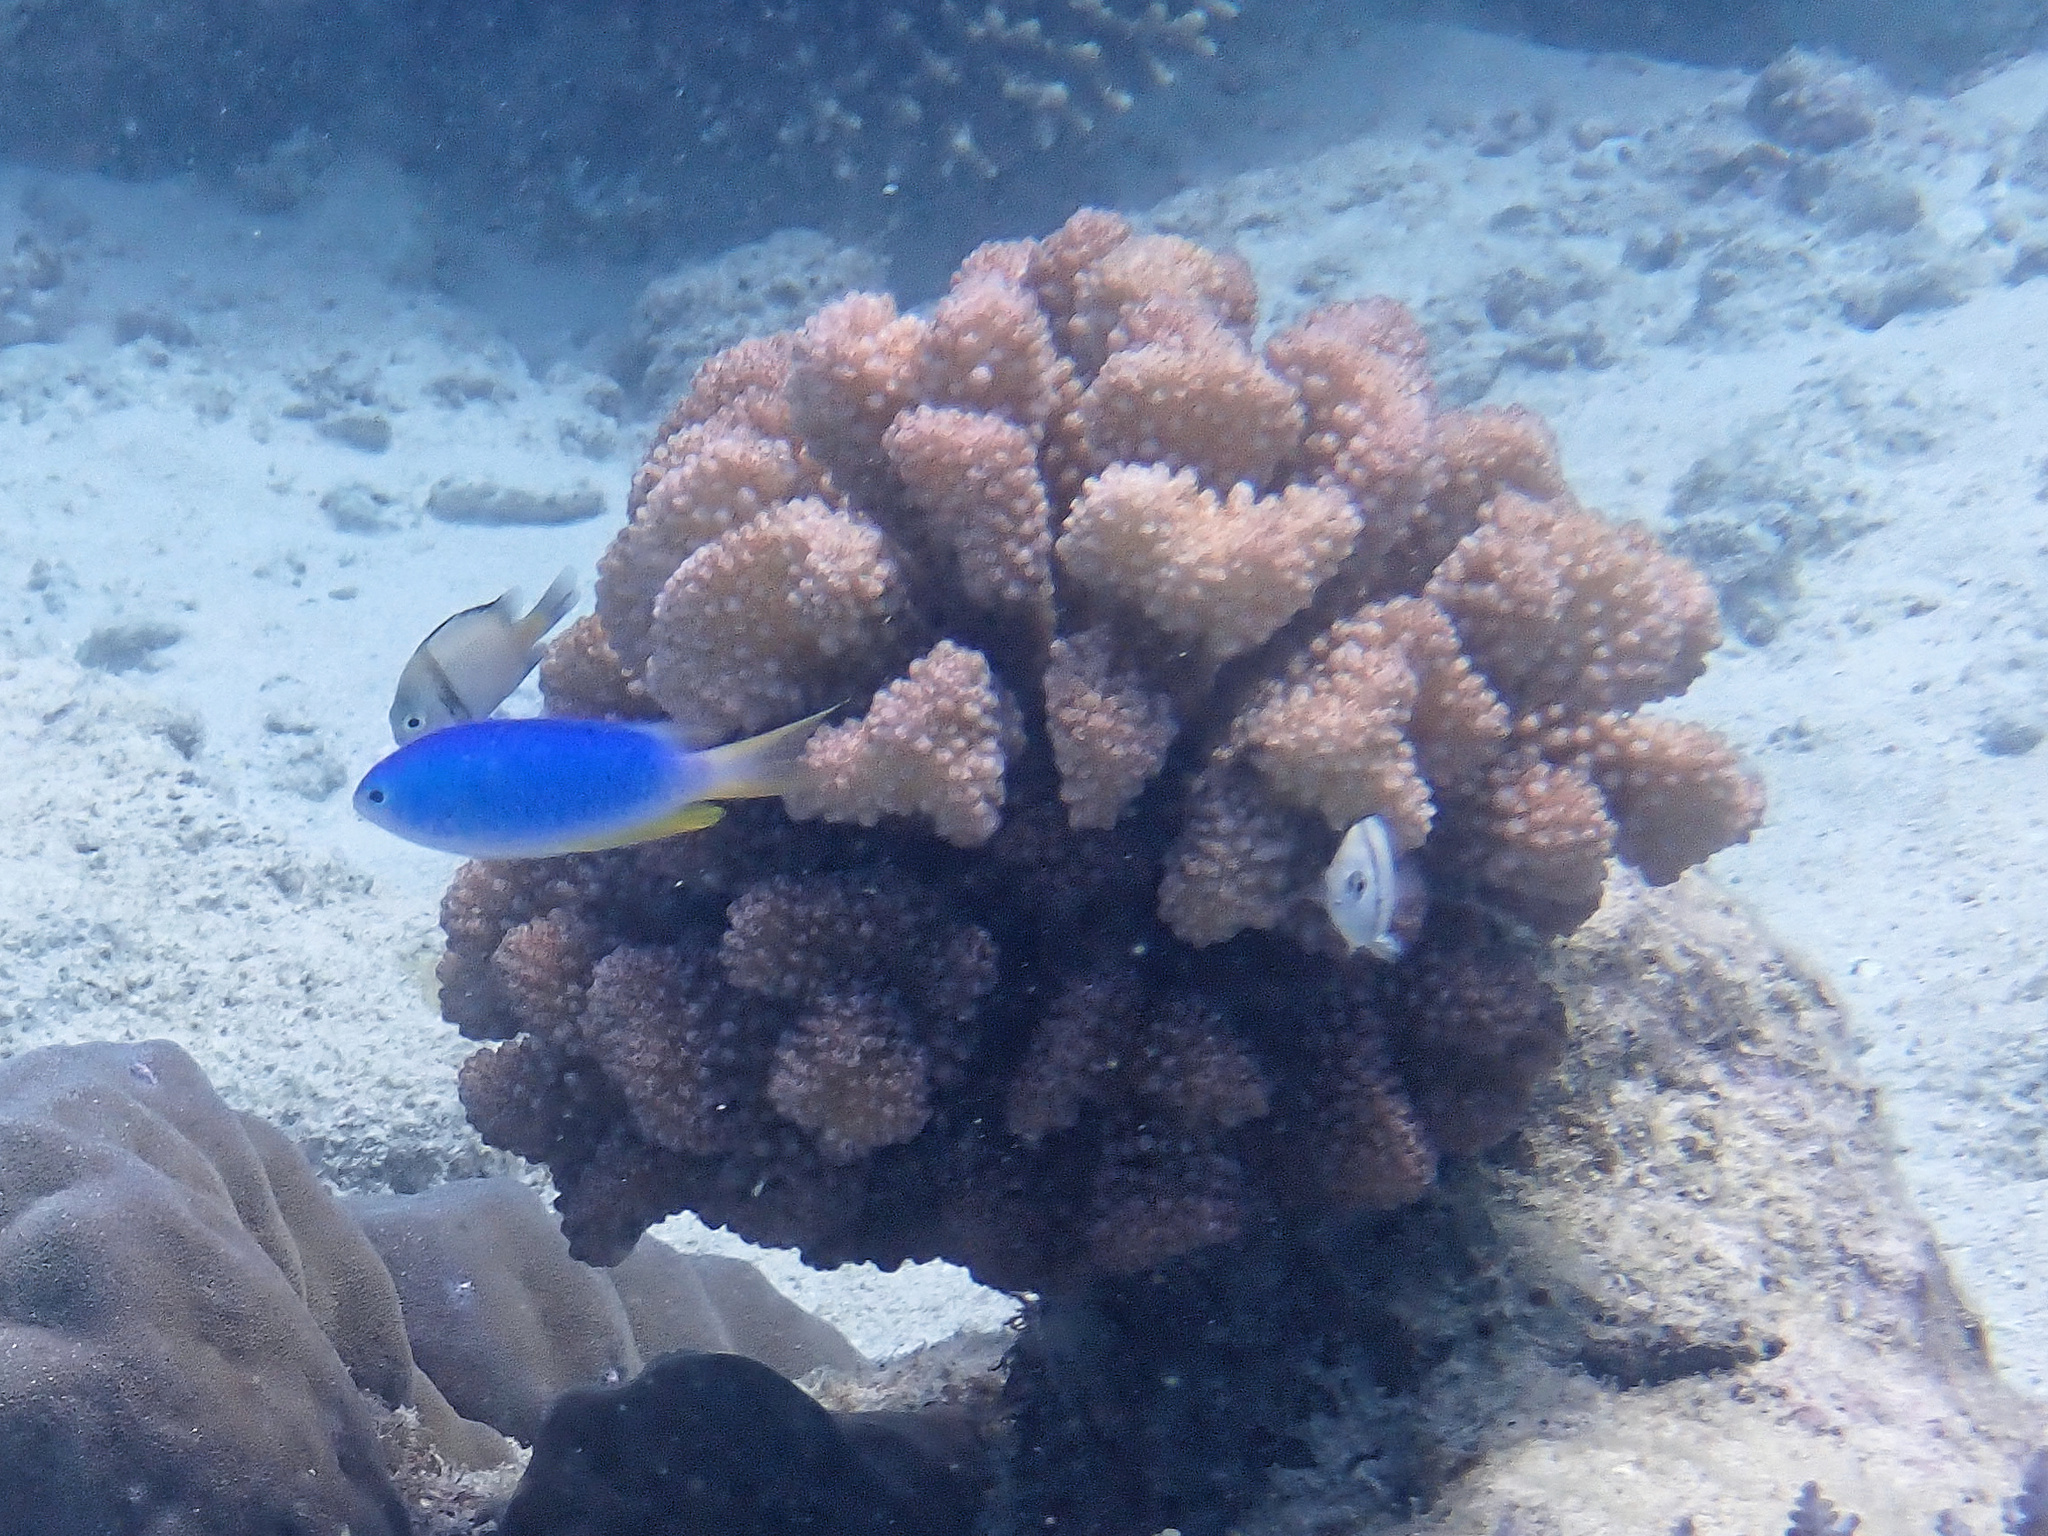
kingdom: Animalia
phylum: Cnidaria
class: Anthozoa
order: Scleractinia
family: Pocilloporidae
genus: Pocillopora
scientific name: Pocillopora verrucosa
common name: Cauliflower coral
